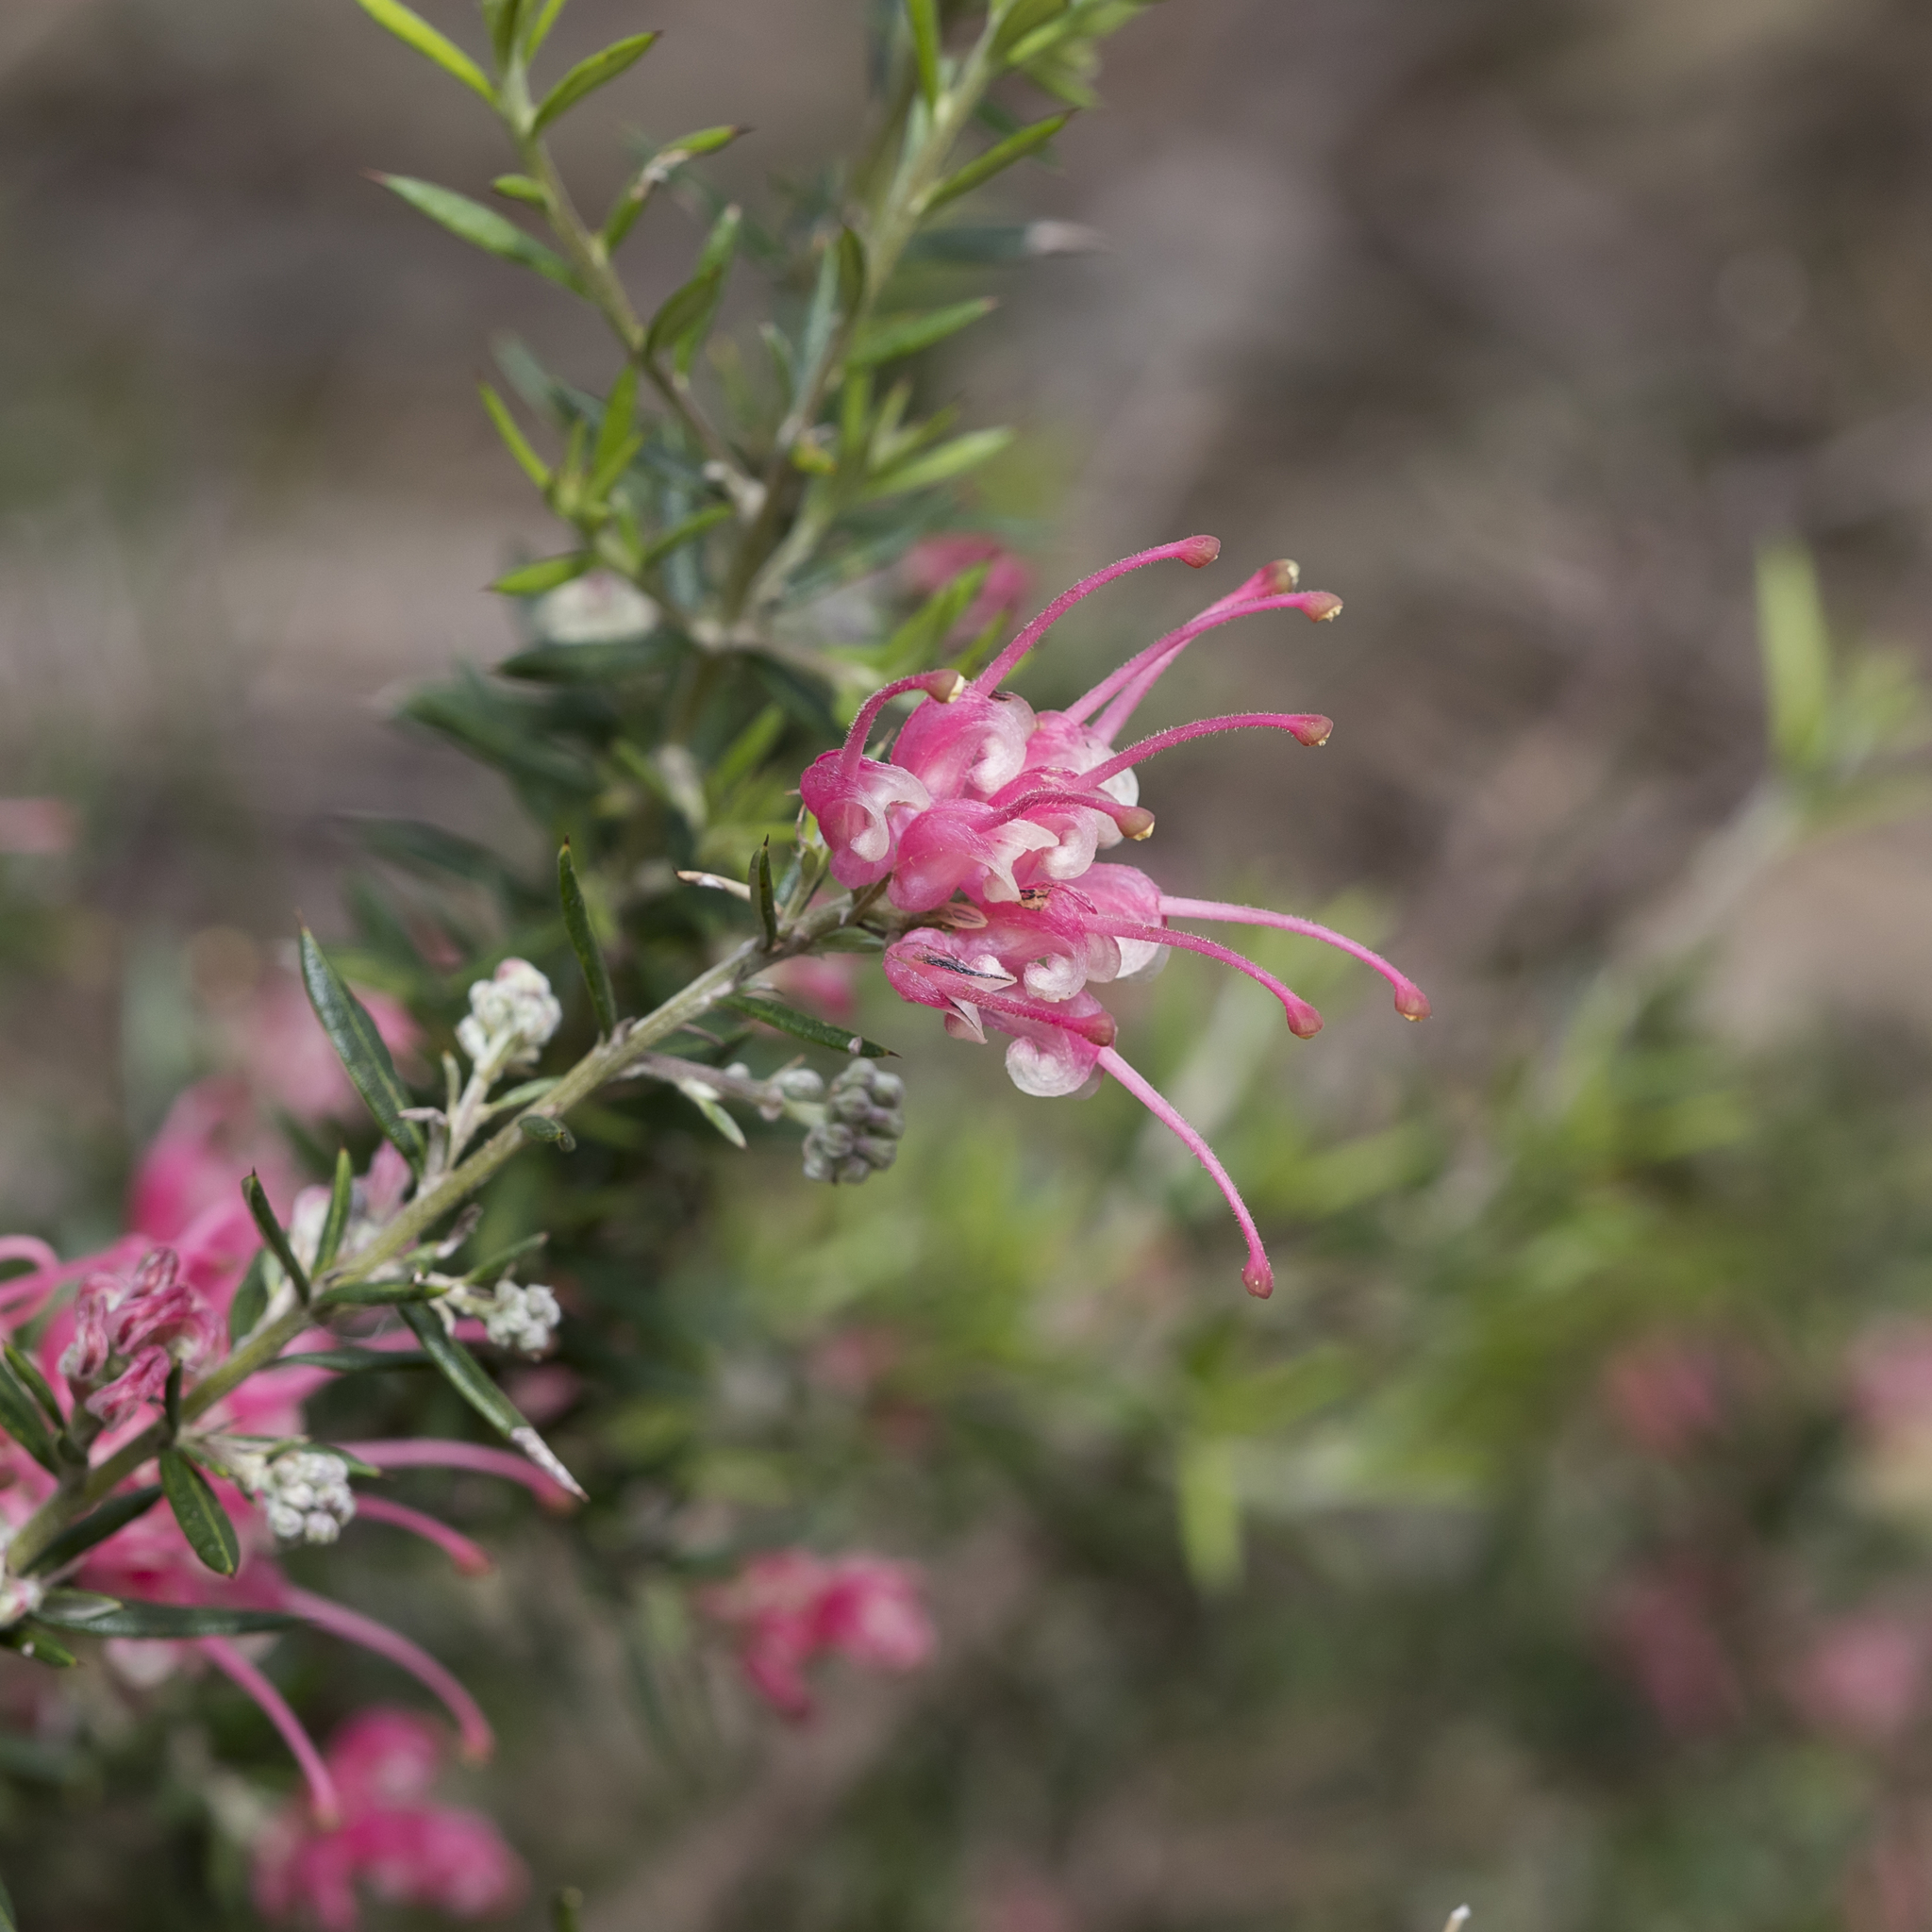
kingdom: Plantae
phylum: Tracheophyta
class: Magnoliopsida
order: Proteales
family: Proteaceae
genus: Grevillea
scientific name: Grevillea lavandulacea
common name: Lavender grevillea
